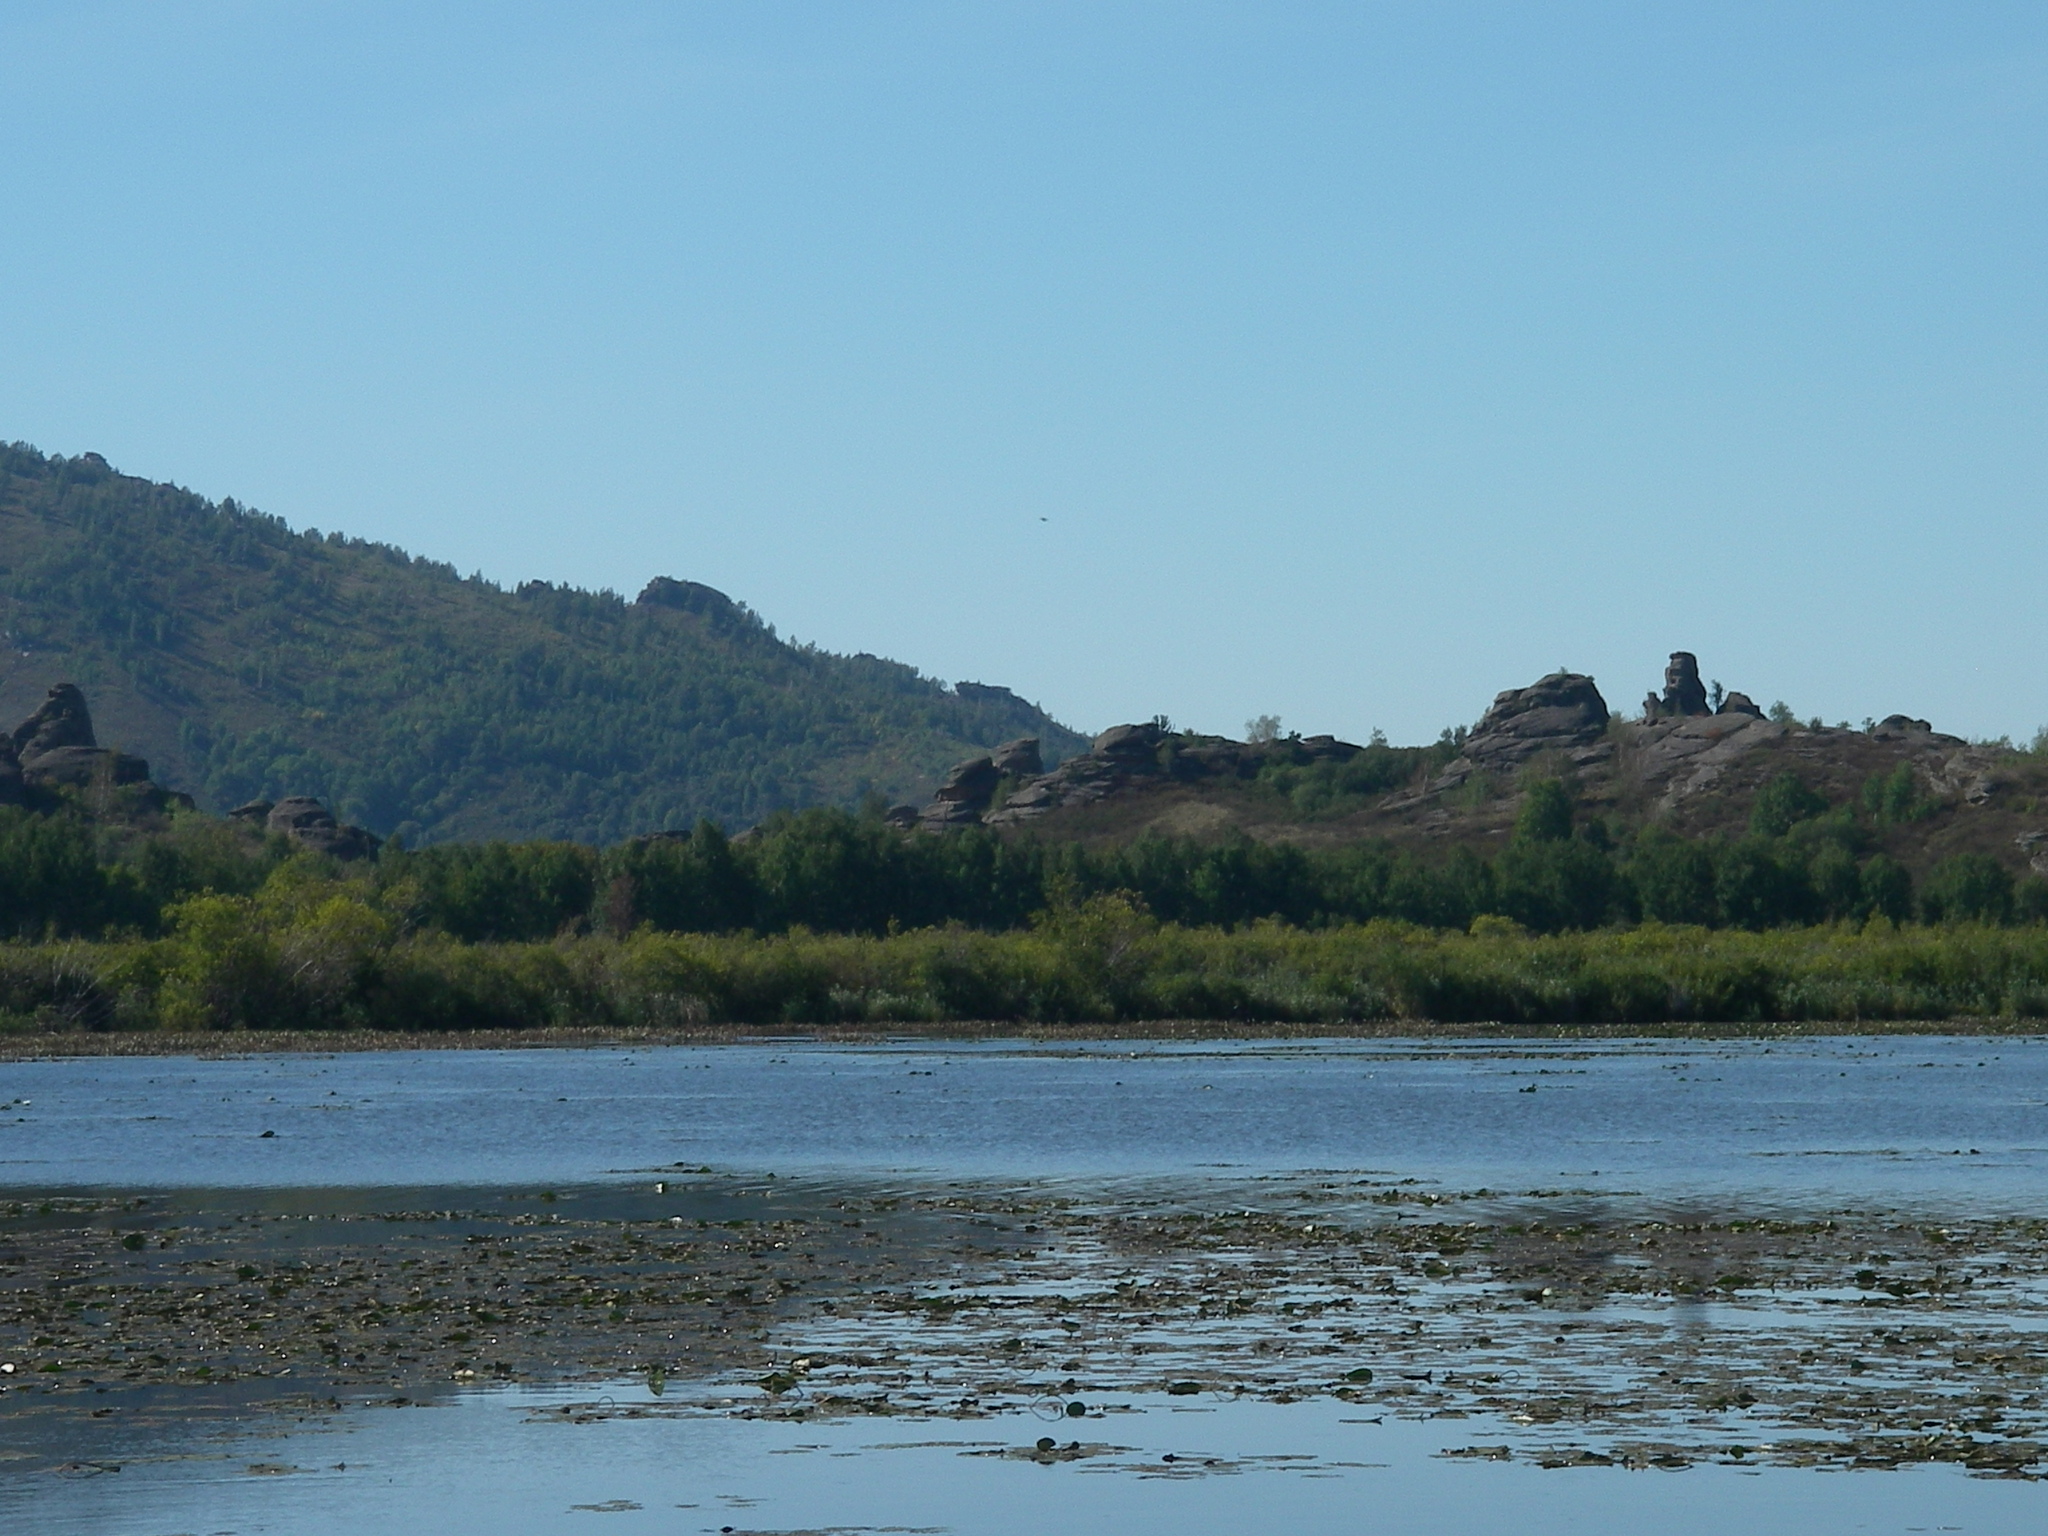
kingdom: Plantae
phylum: Tracheophyta
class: Magnoliopsida
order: Nymphaeales
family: Nymphaeaceae
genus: Nymphaea
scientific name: Nymphaea candida
